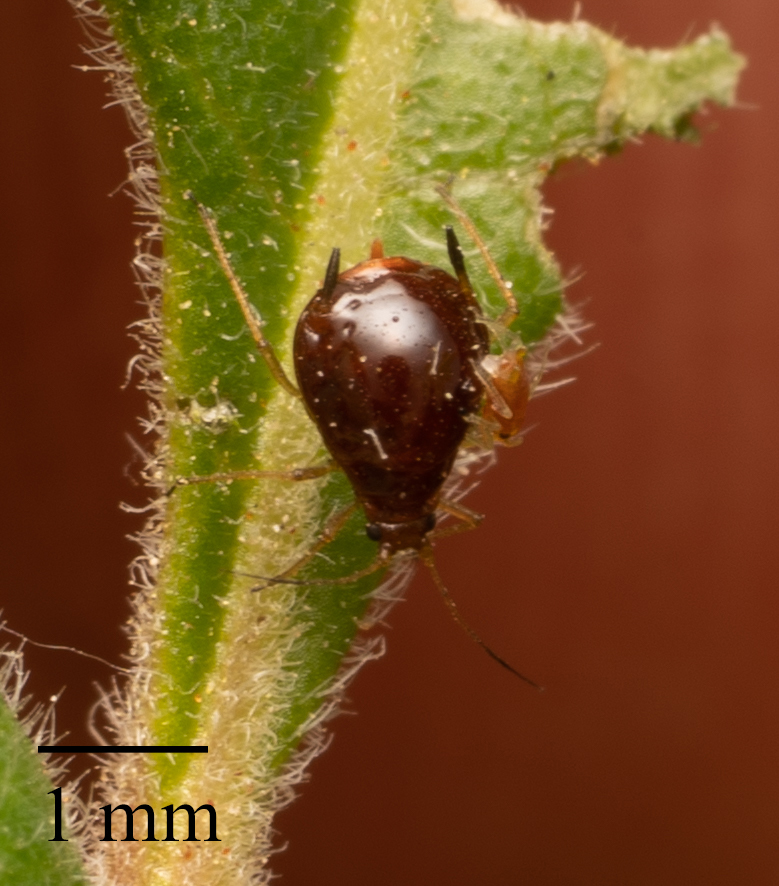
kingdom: Animalia
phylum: Arthropoda
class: Insecta
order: Hemiptera
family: Aphididae
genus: Carolinaia
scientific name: Carolinaia rhois
